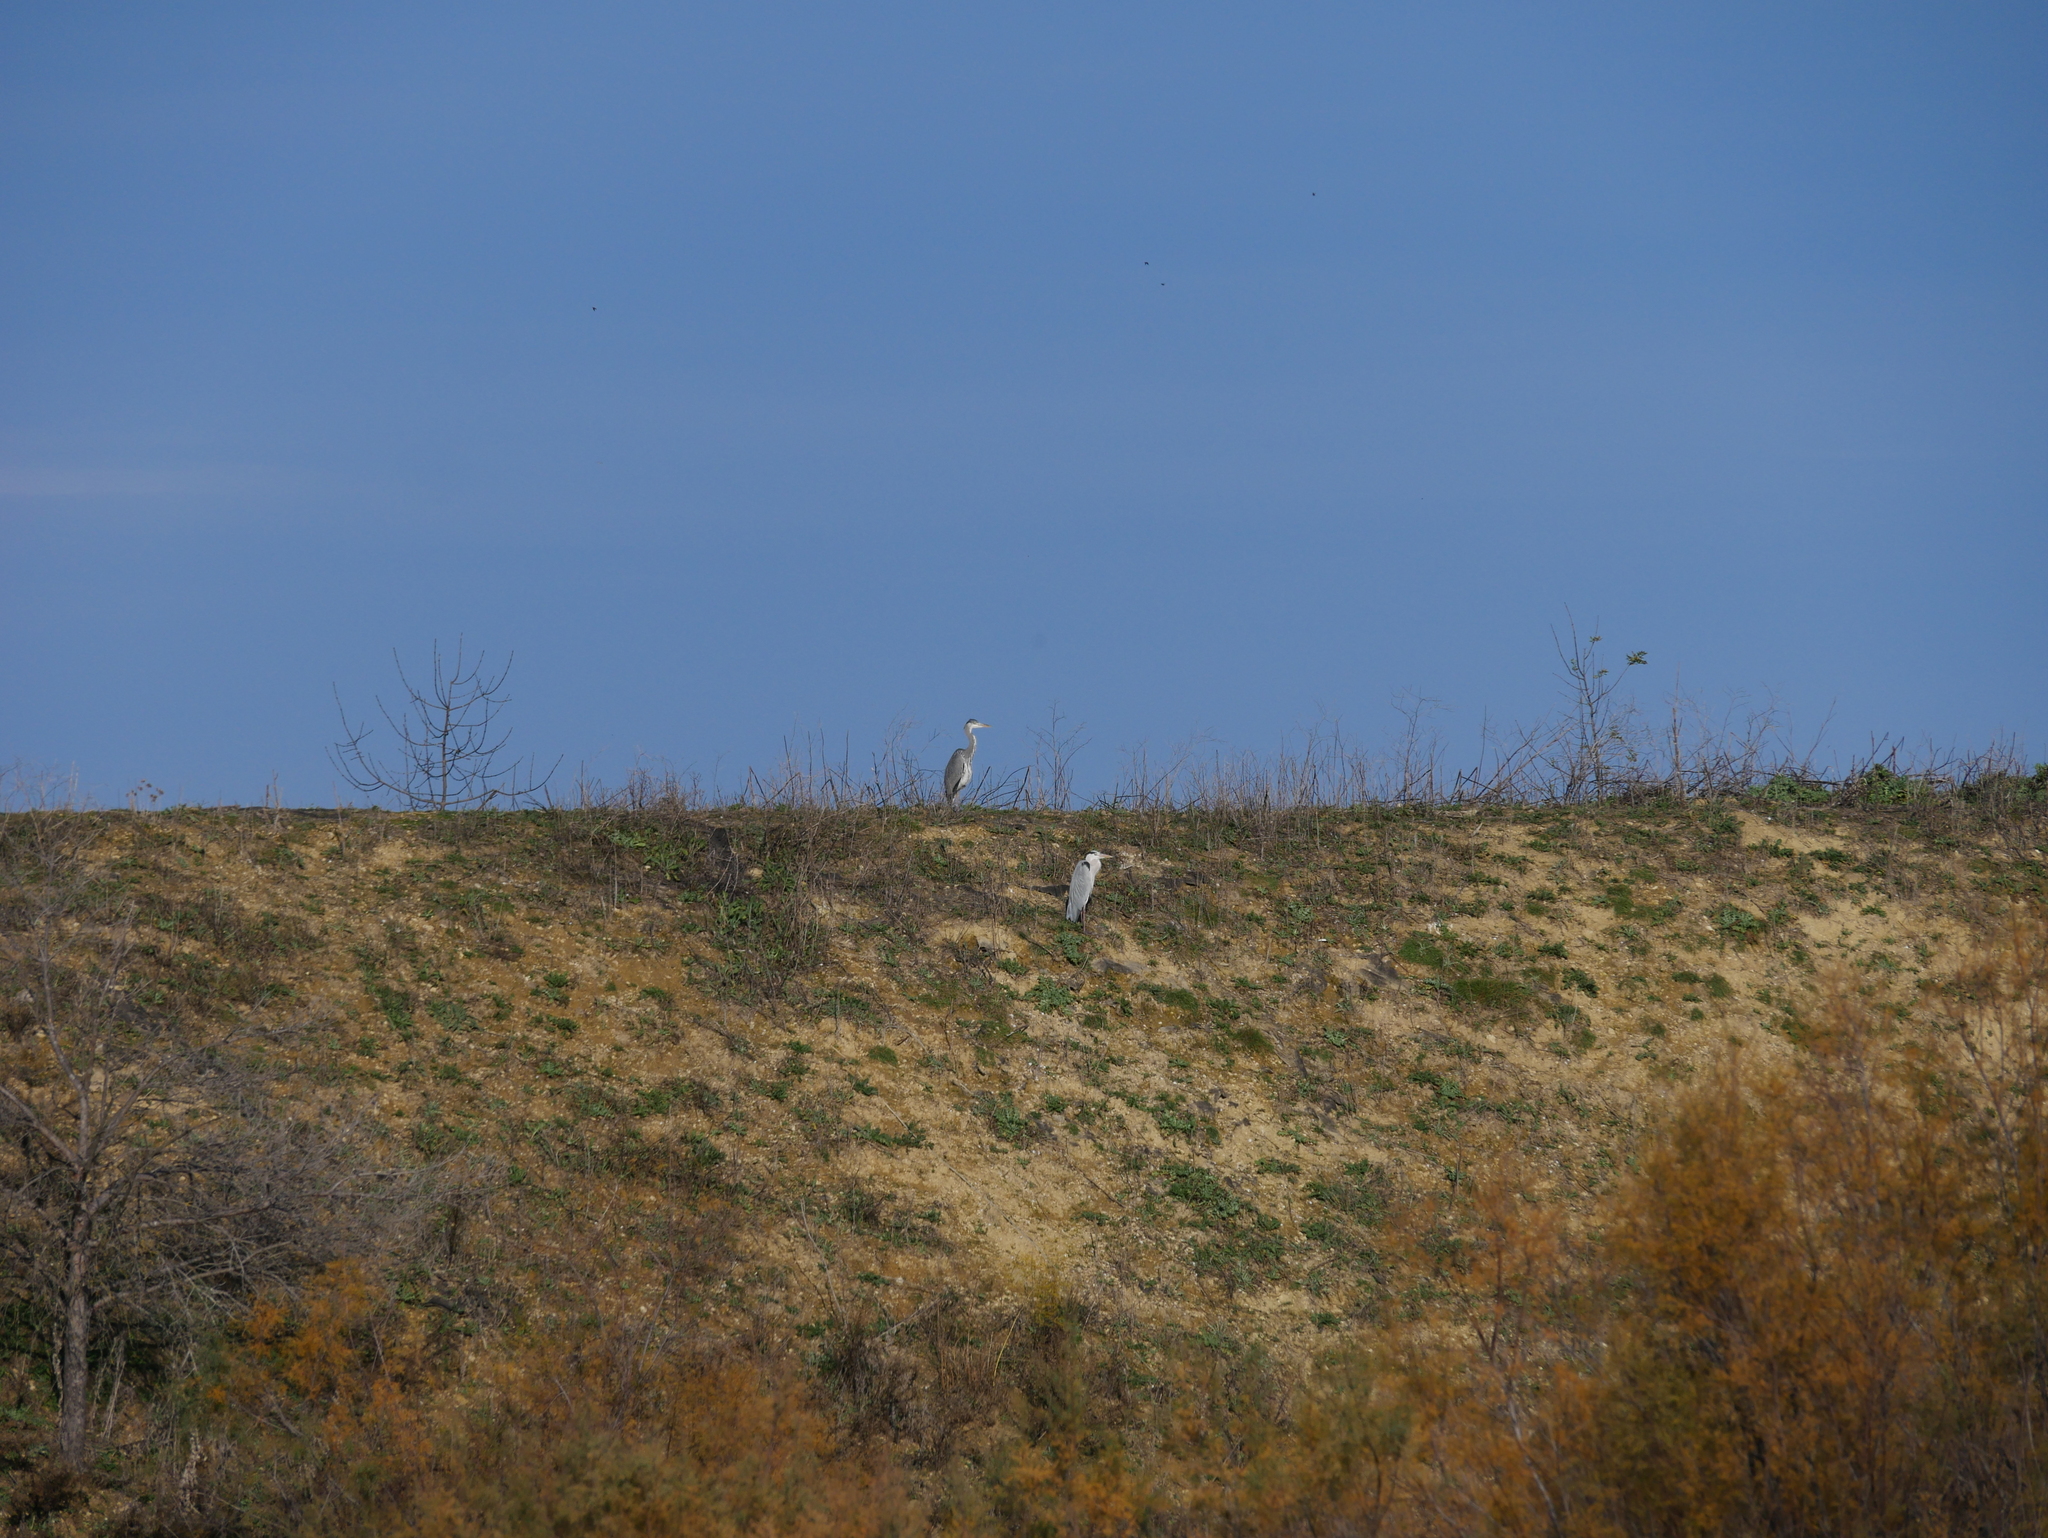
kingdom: Animalia
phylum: Chordata
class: Aves
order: Pelecaniformes
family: Ardeidae
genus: Ardea
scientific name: Ardea cinerea
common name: Grey heron
